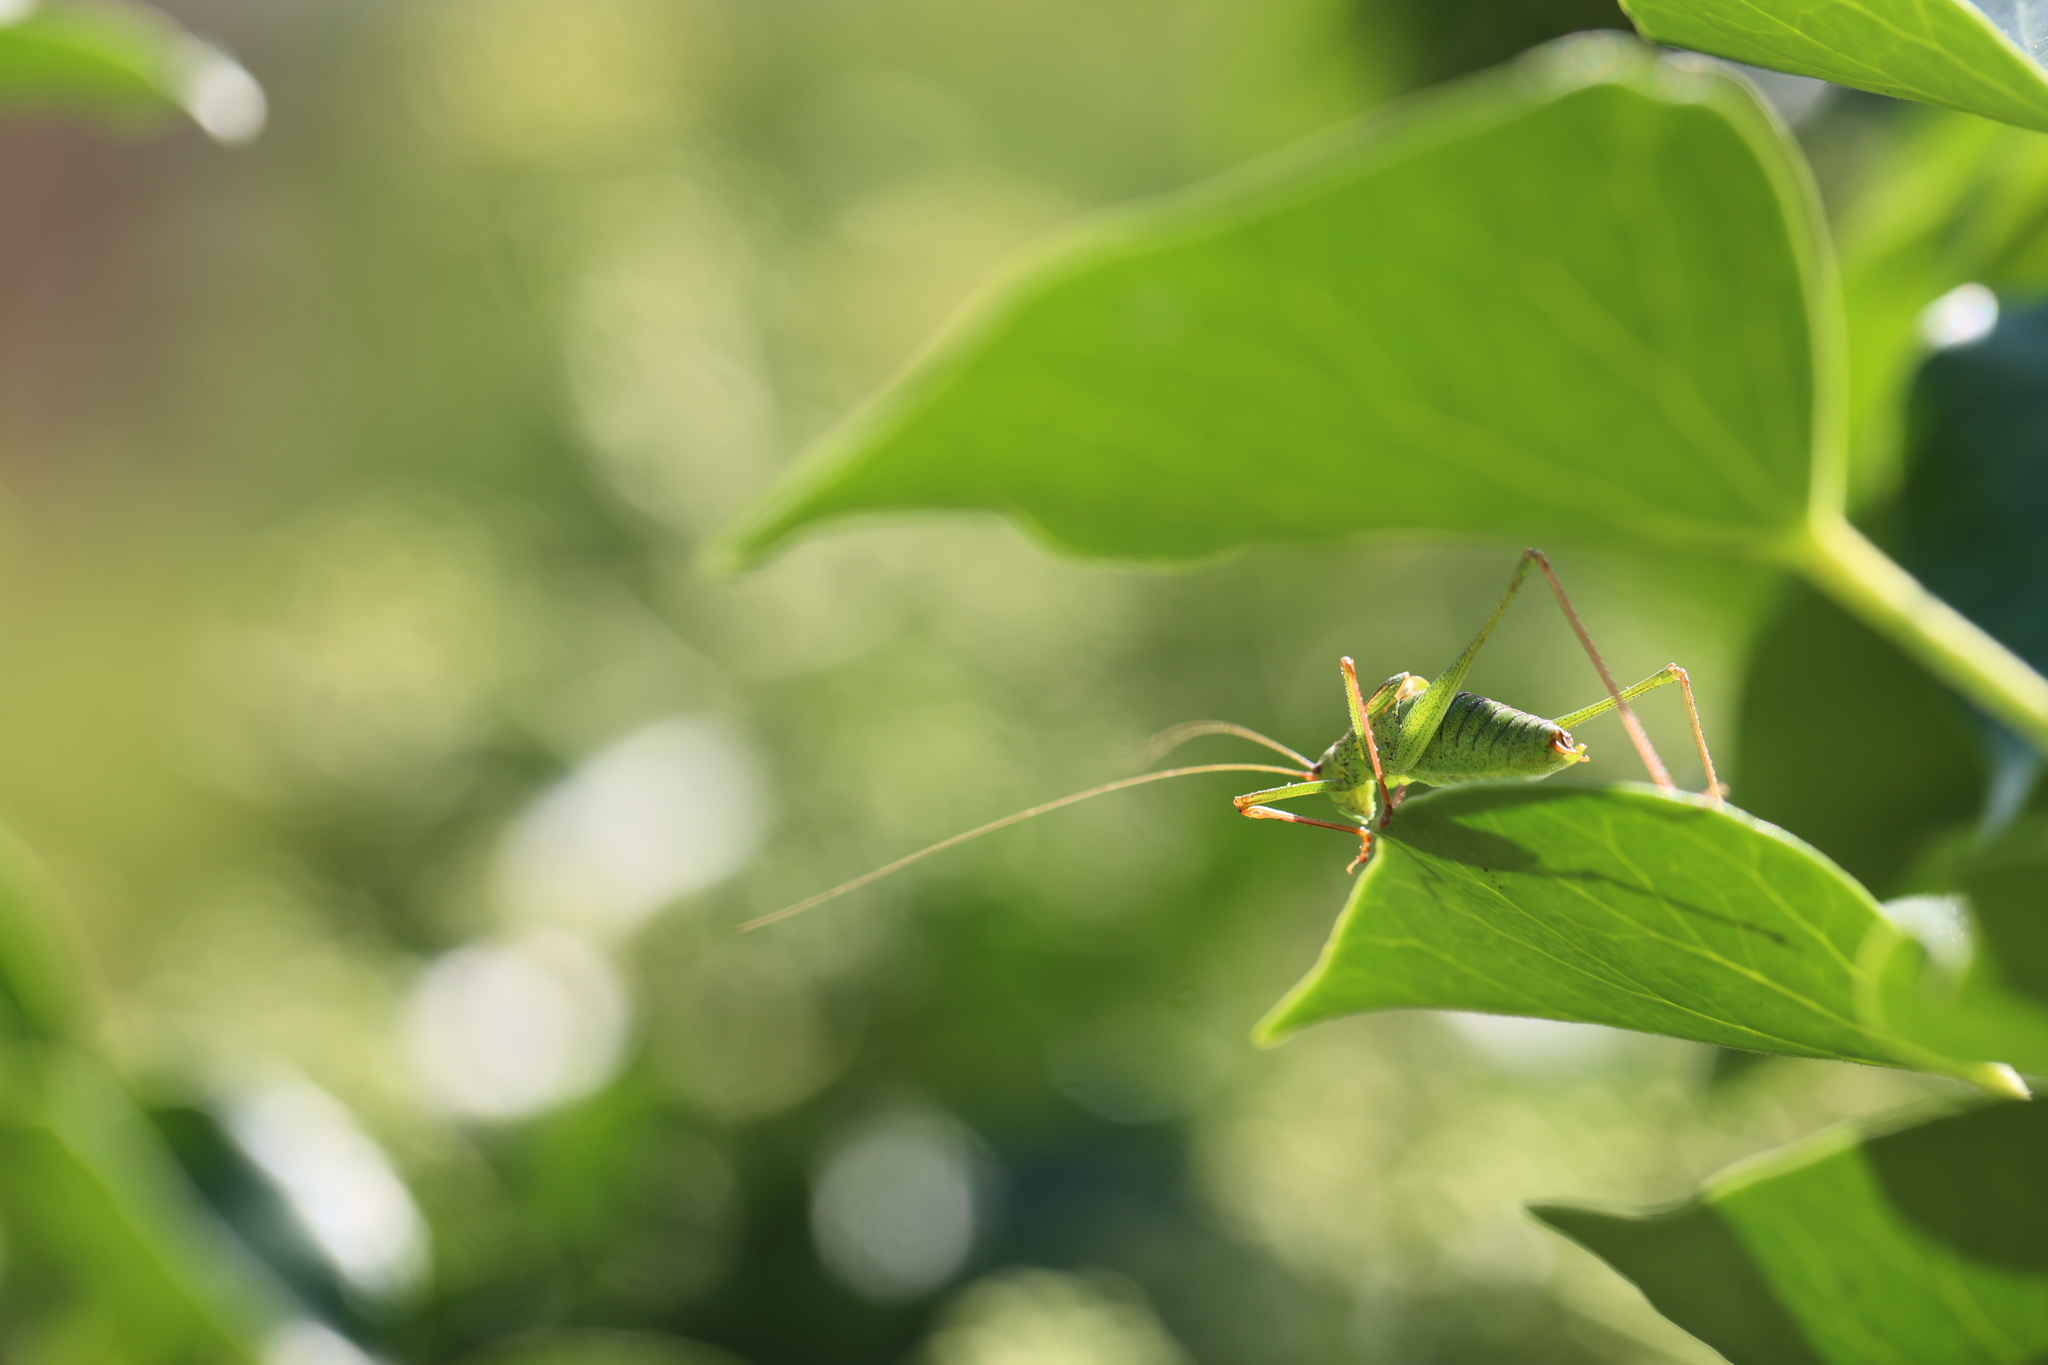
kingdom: Animalia
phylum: Arthropoda
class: Insecta
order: Orthoptera
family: Tettigoniidae
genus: Leptophyes
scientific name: Leptophyes punctatissima
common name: Speckled bush-cricket
